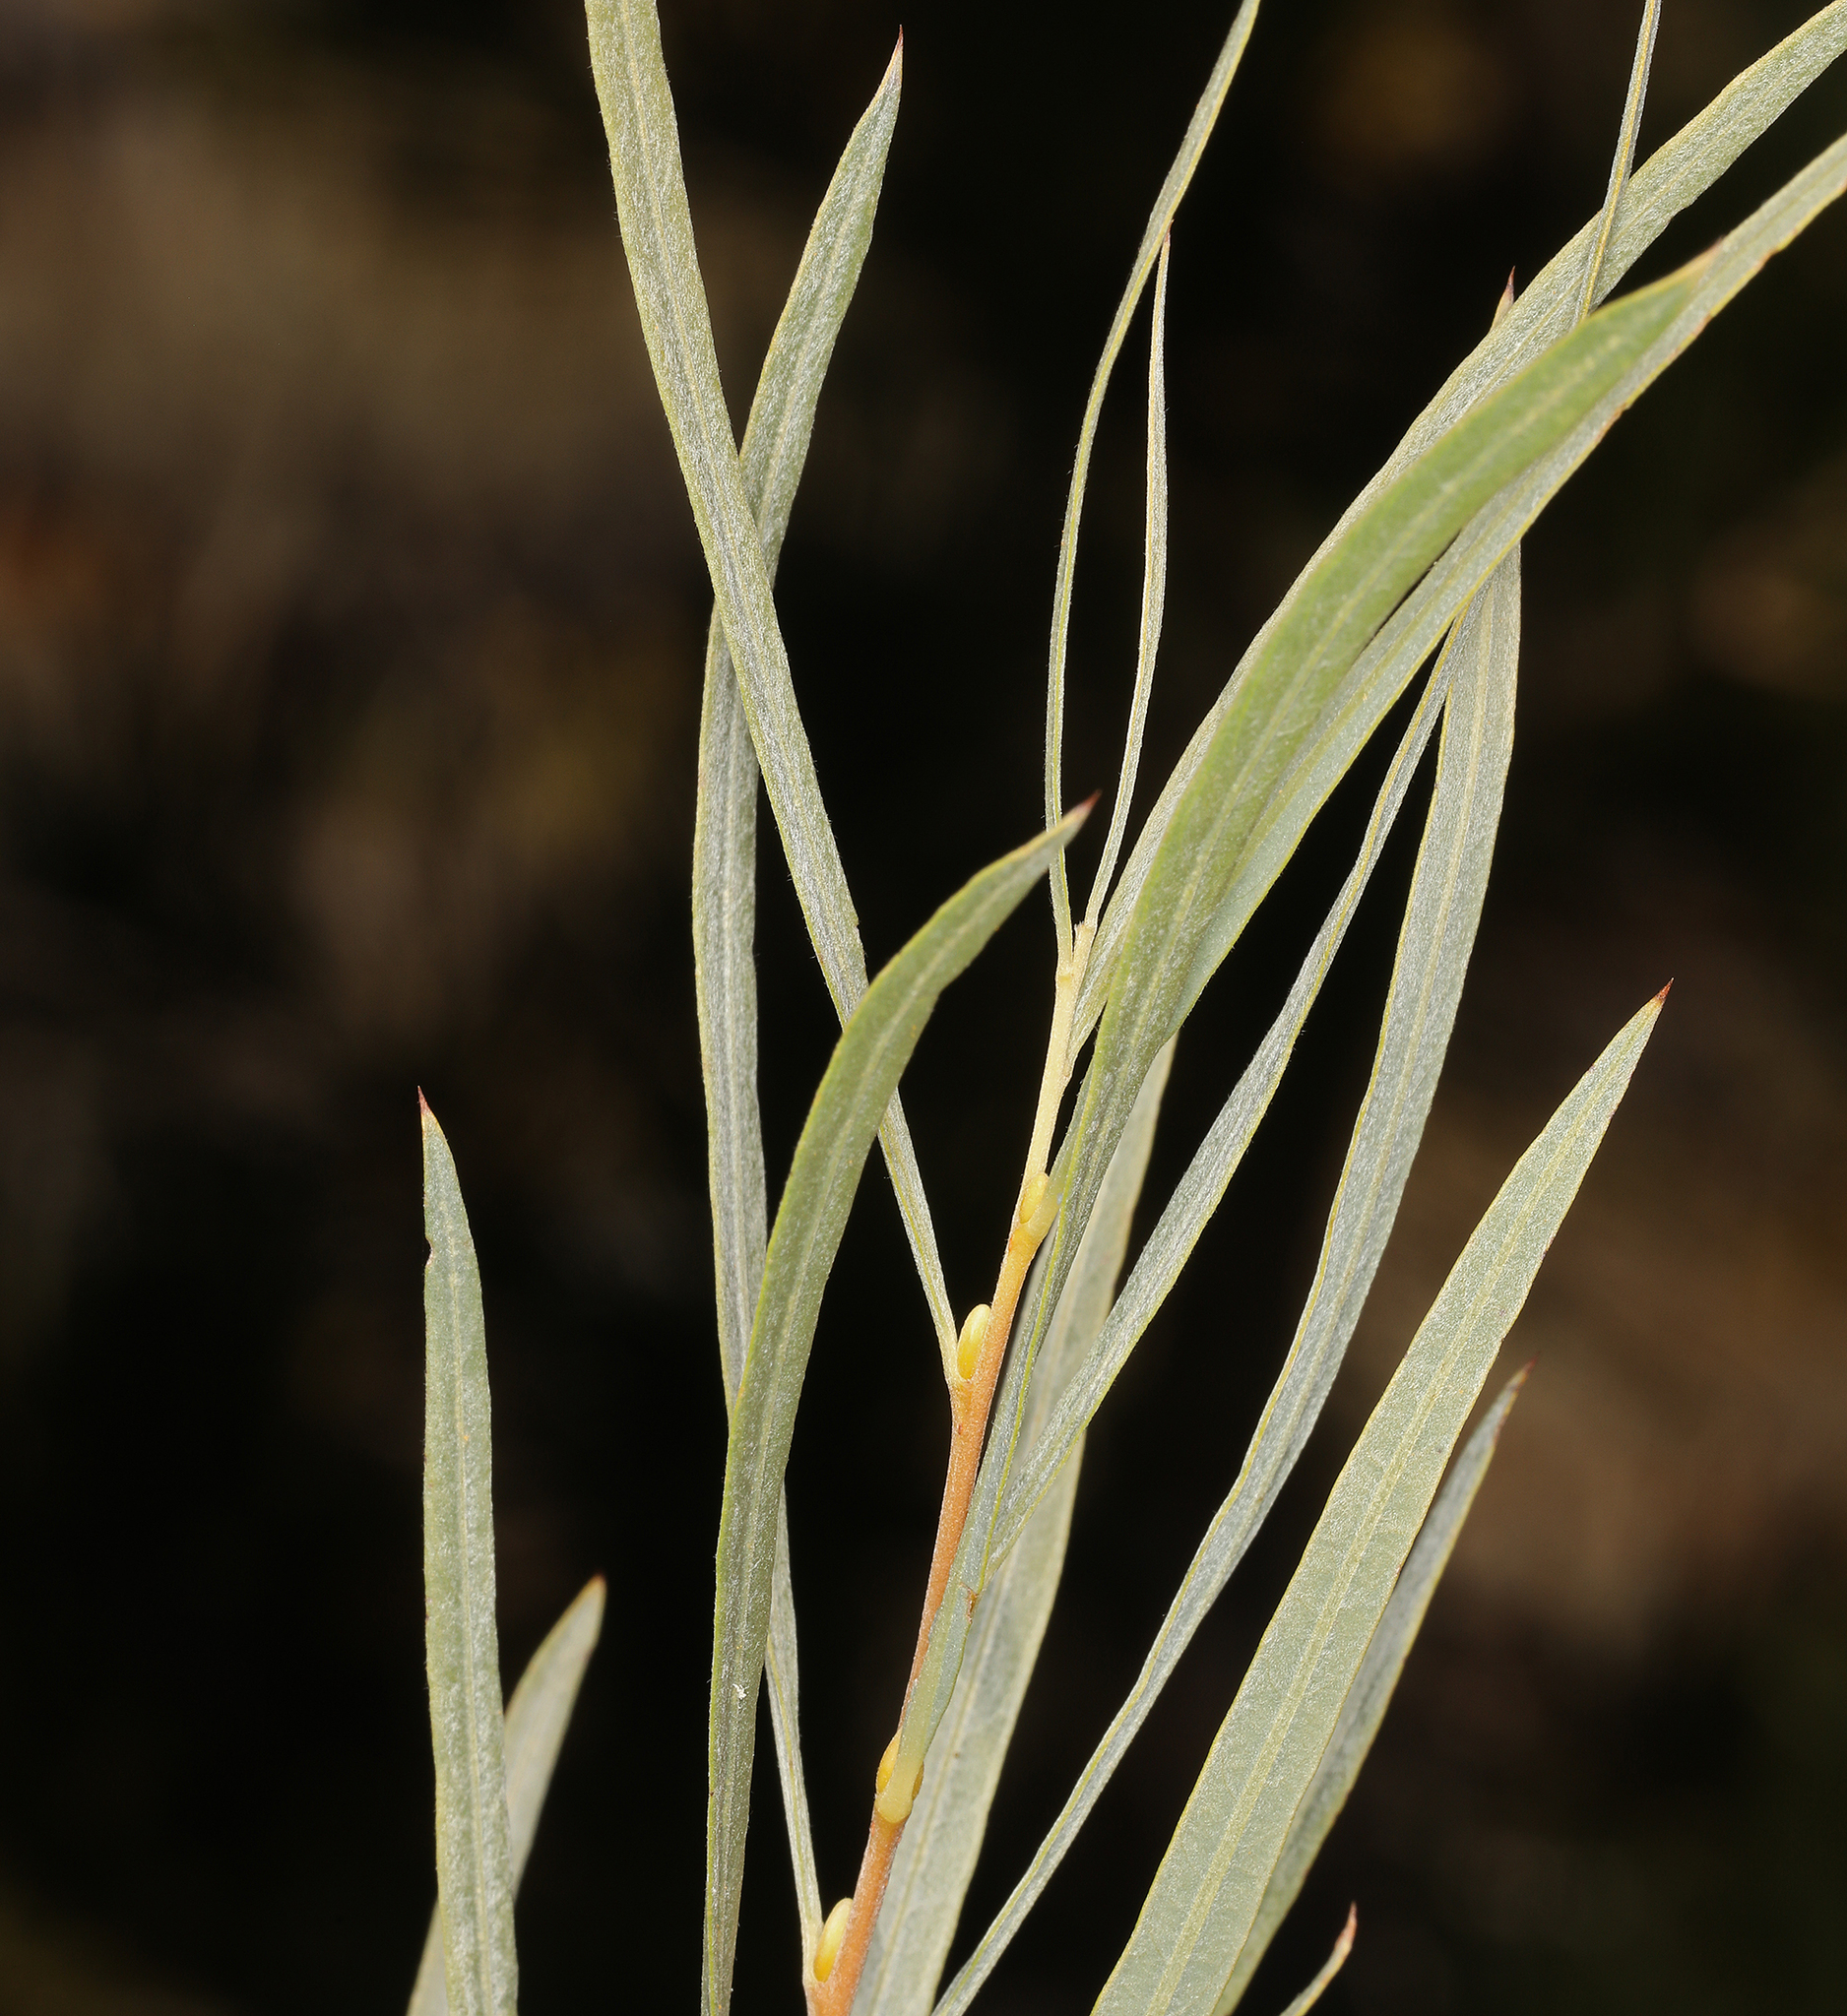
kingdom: Plantae
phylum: Tracheophyta
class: Magnoliopsida
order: Malpighiales
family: Salicaceae
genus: Salix
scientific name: Salix exigua
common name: Coyote willow
